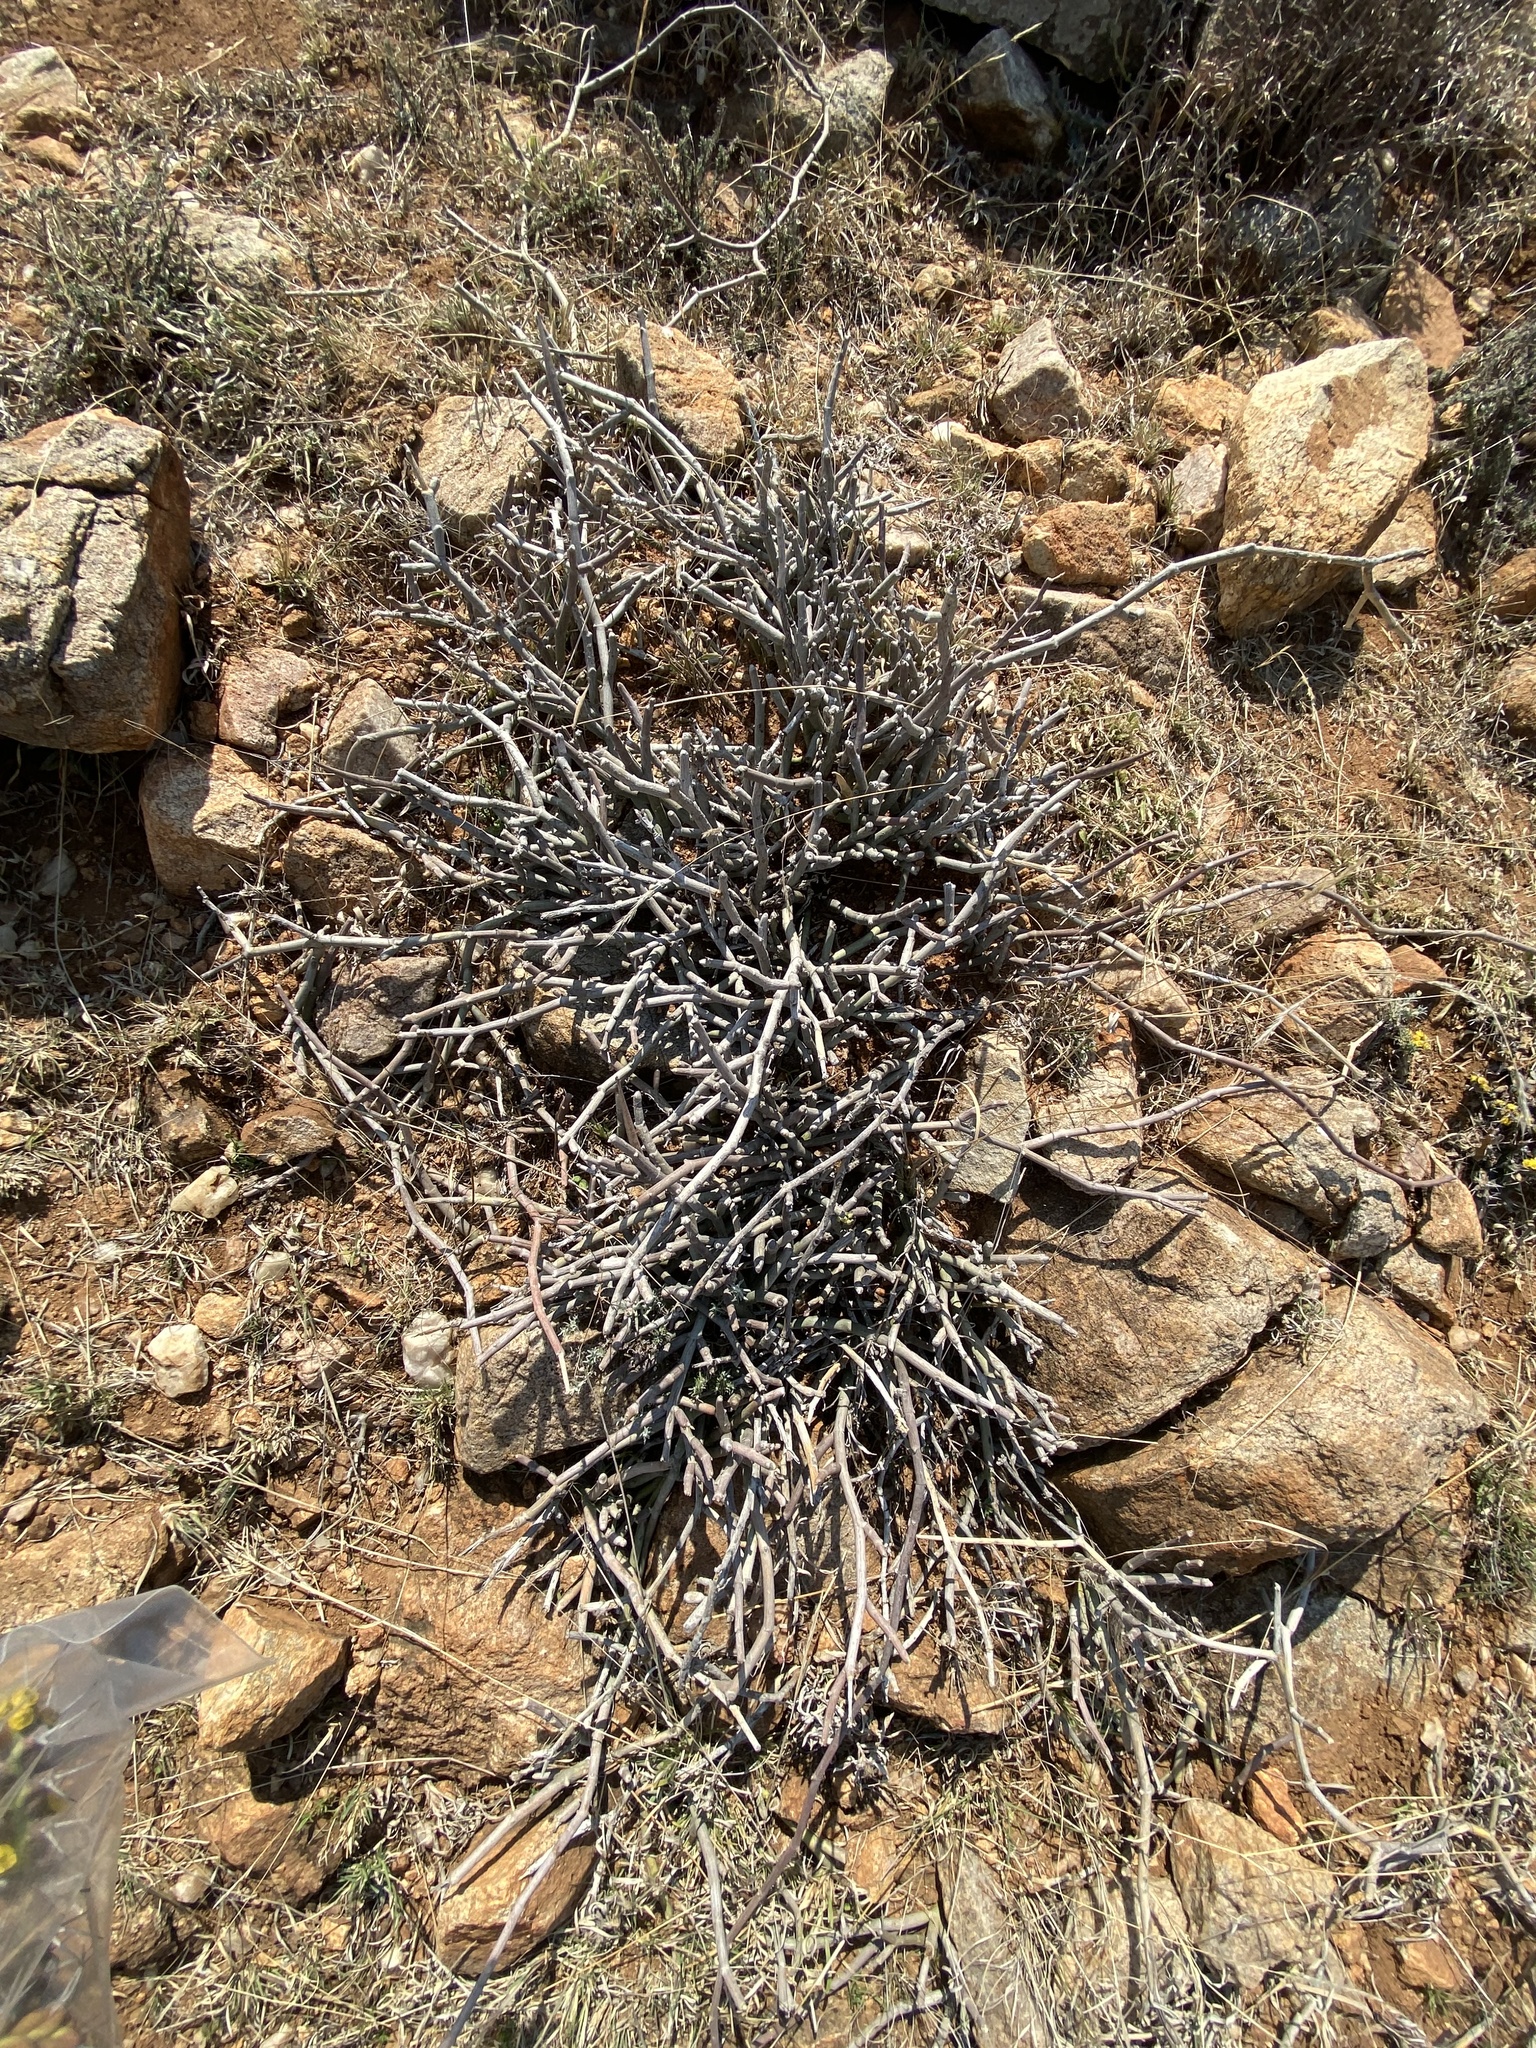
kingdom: Plantae
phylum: Tracheophyta
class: Magnoliopsida
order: Gentianales
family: Apocynaceae
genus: Cynanchum
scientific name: Cynanchum viminale
